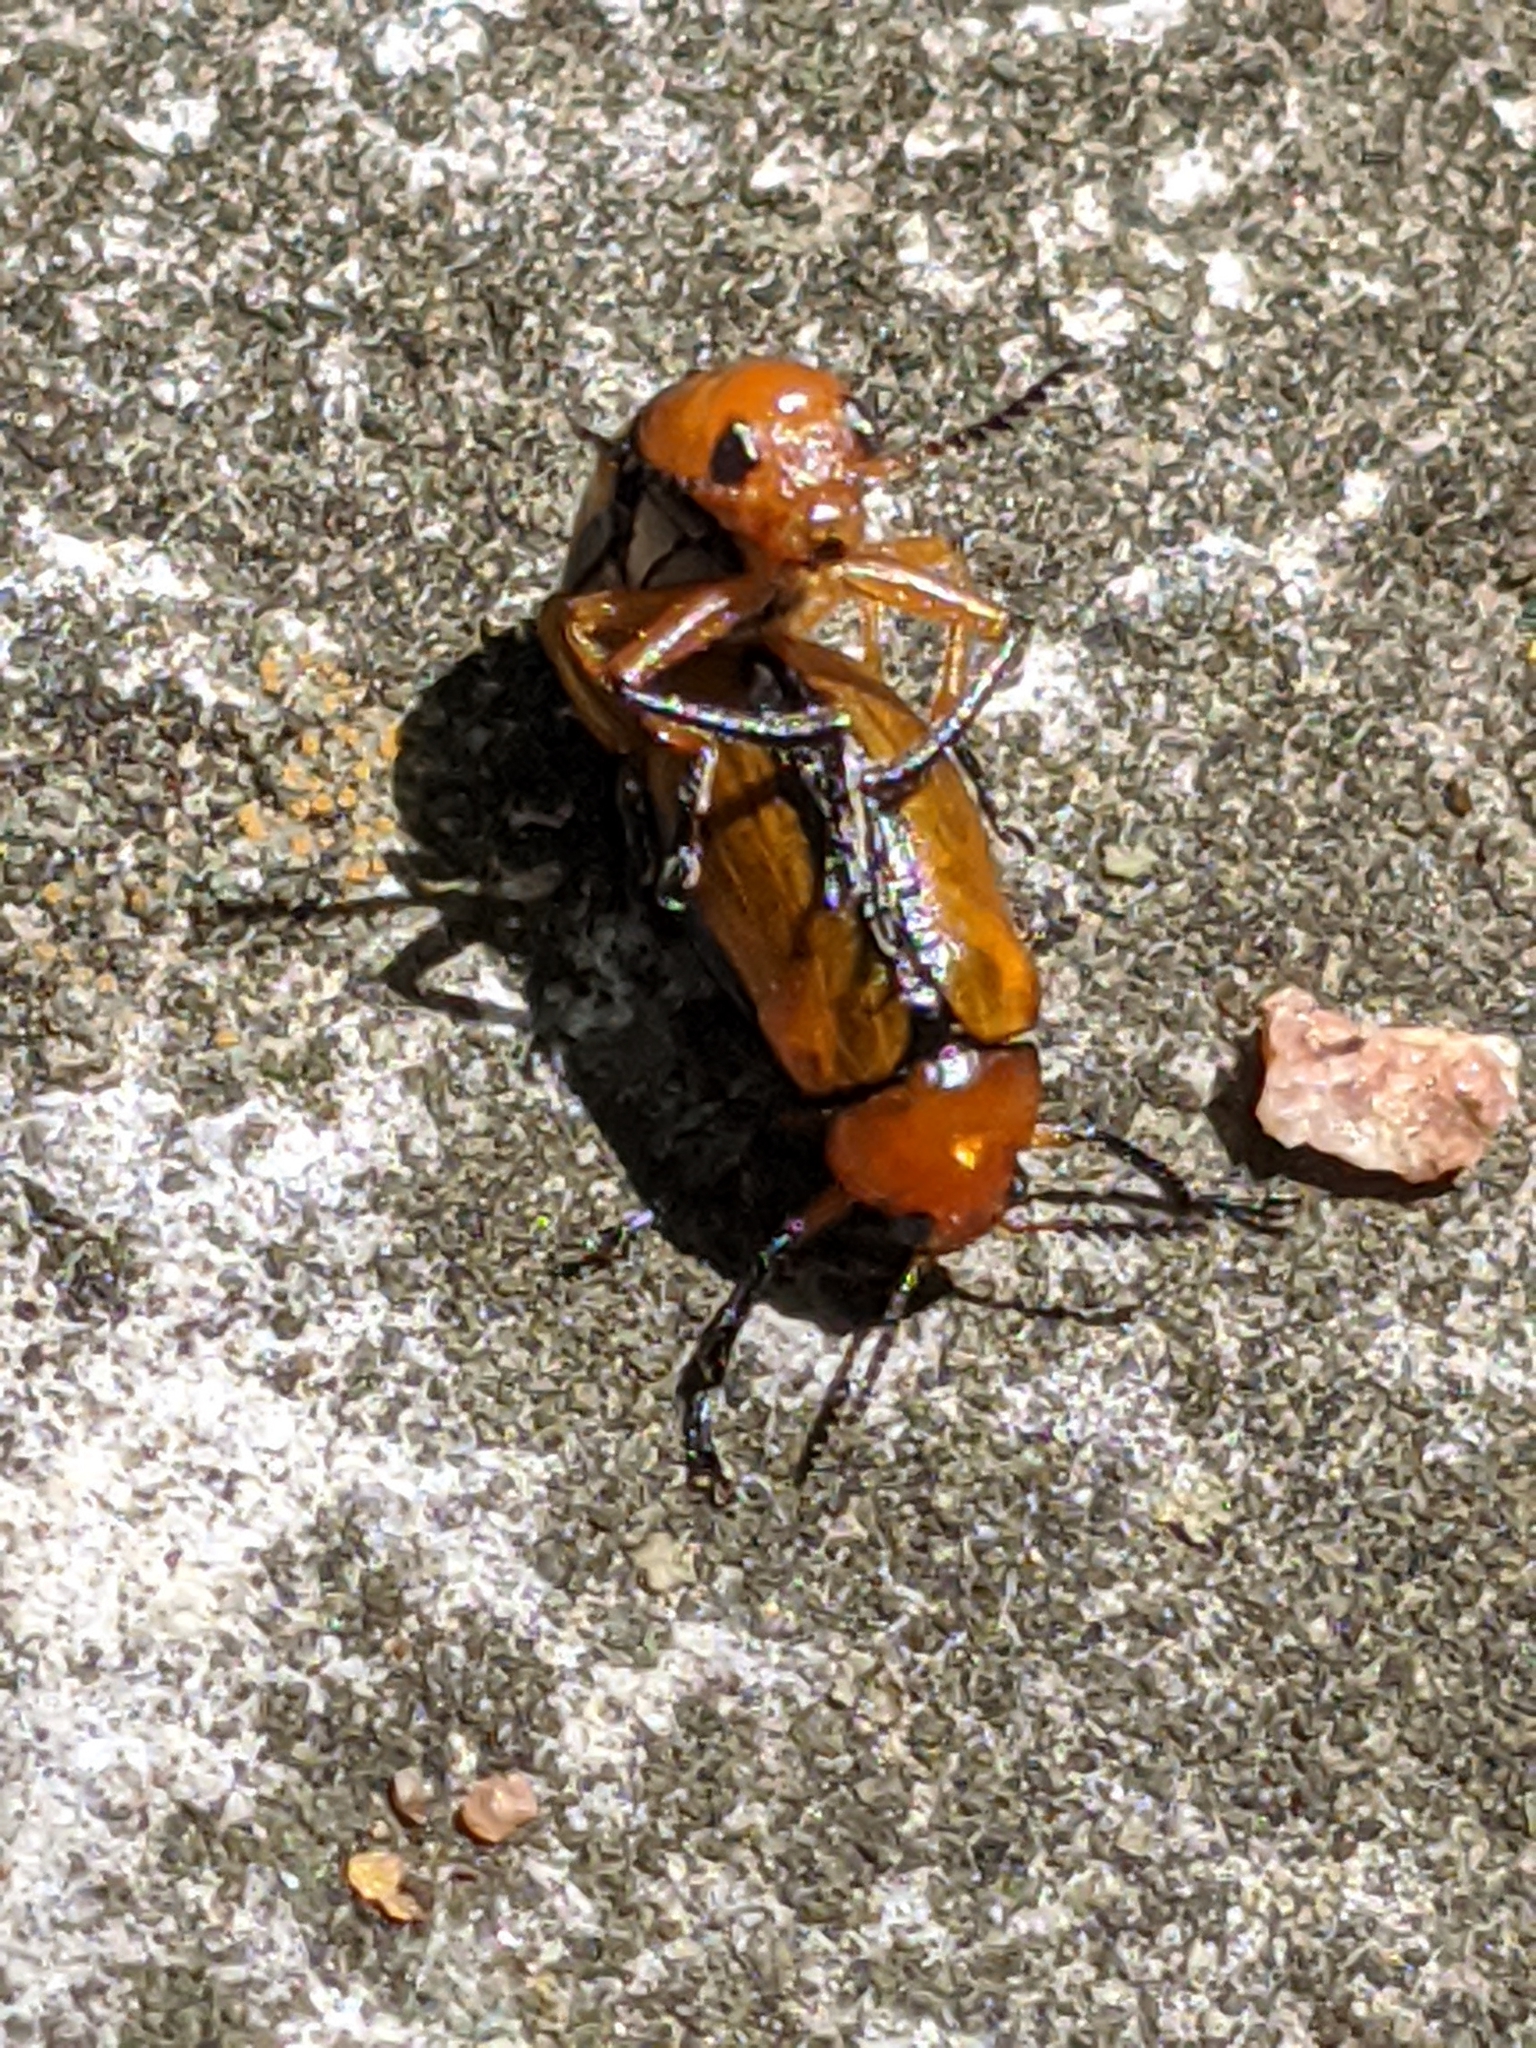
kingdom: Animalia
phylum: Arthropoda
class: Insecta
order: Coleoptera
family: Chrysomelidae
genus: Anomoea
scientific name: Anomoea laticlavia
